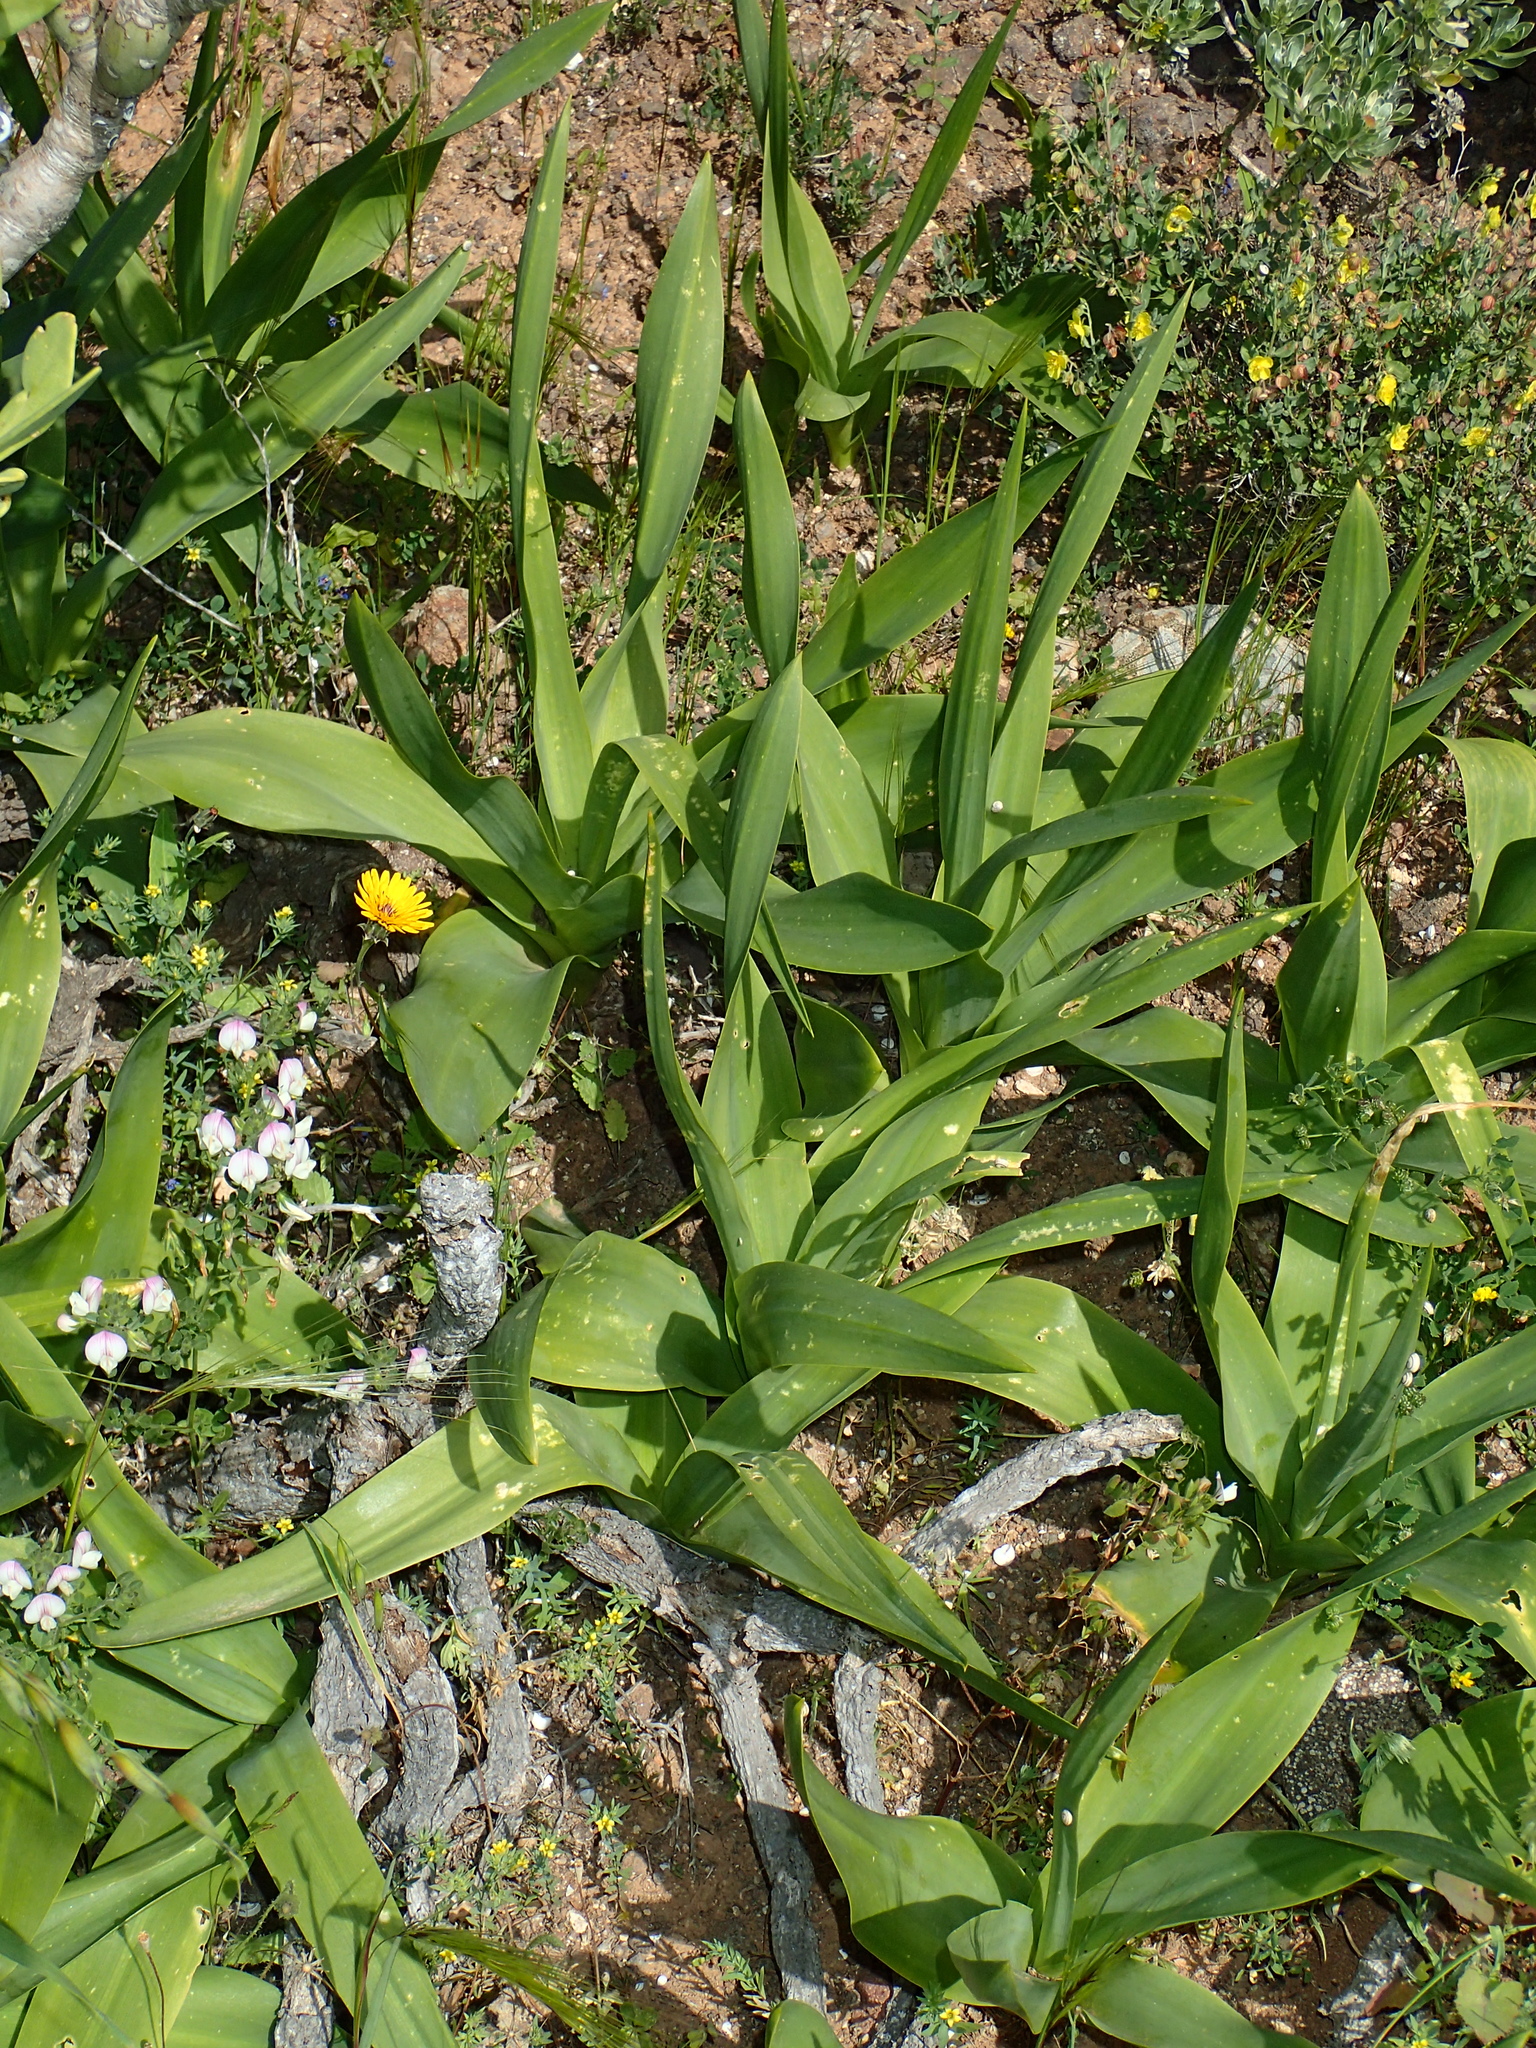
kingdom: Plantae
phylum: Tracheophyta
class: Liliopsida
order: Asparagales
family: Asparagaceae
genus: Scilla
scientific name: Scilla latifolia
